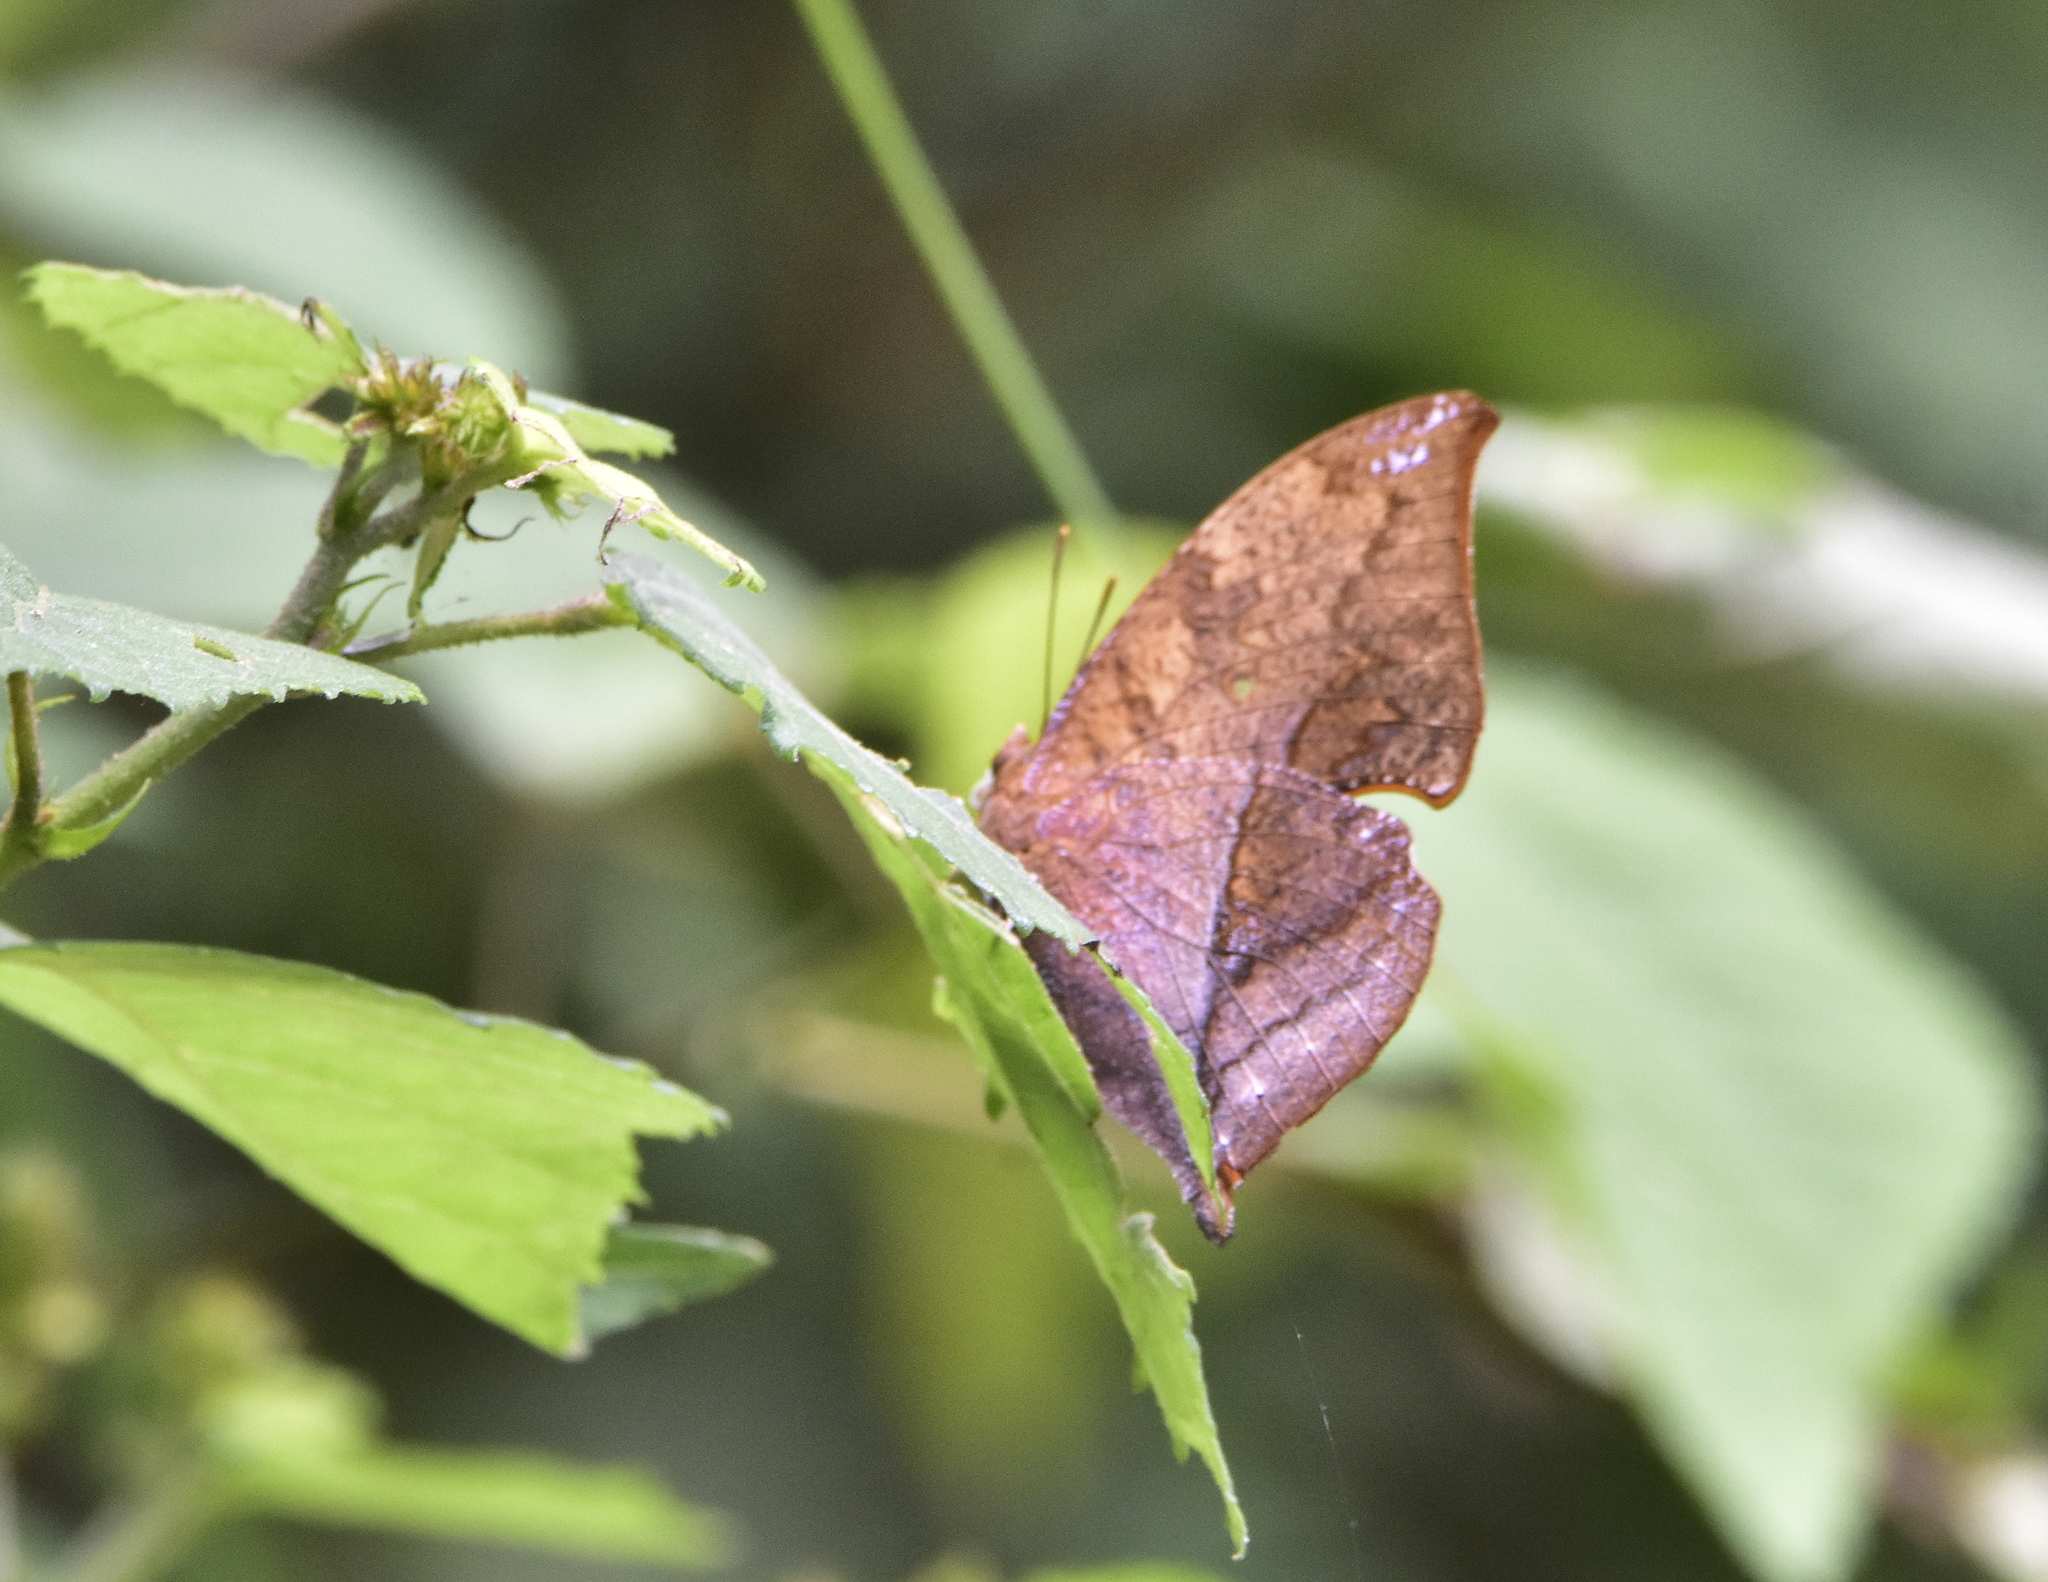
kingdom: Animalia
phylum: Arthropoda
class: Insecta
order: Lepidoptera
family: Nymphalidae
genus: Zaretis
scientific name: Zaretis itys
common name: Skeletonized leafwing
